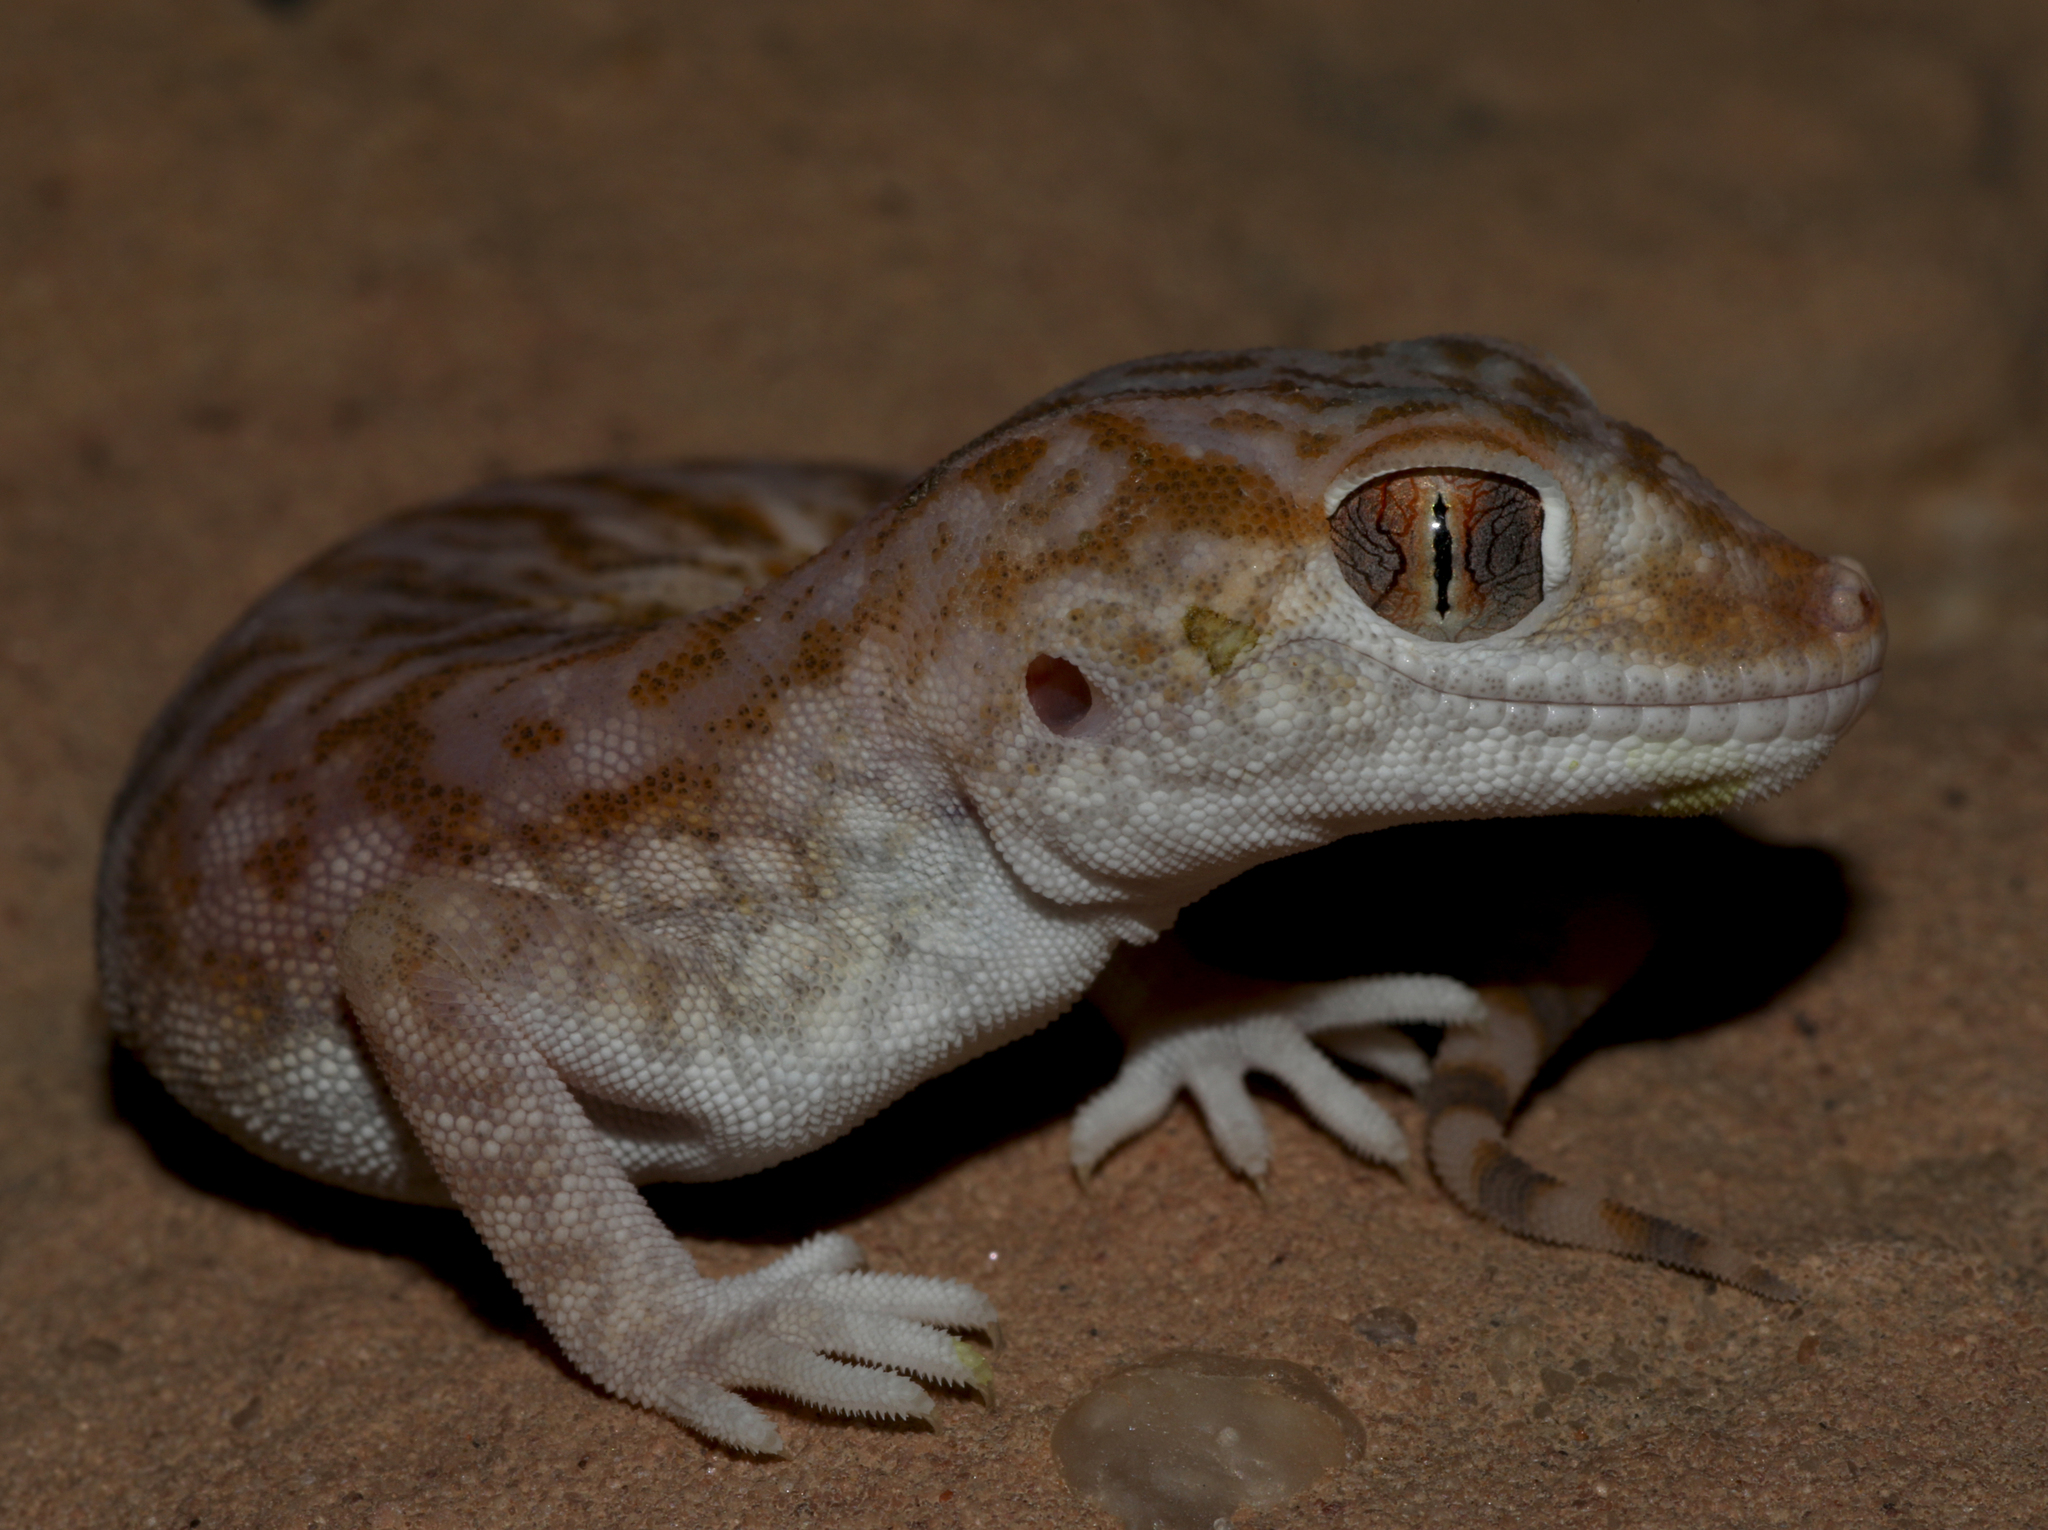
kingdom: Animalia
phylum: Chordata
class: Squamata
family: Gekkonidae
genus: Stenodactylus
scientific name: Stenodactylus slevini
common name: Slevin's sand gecko
